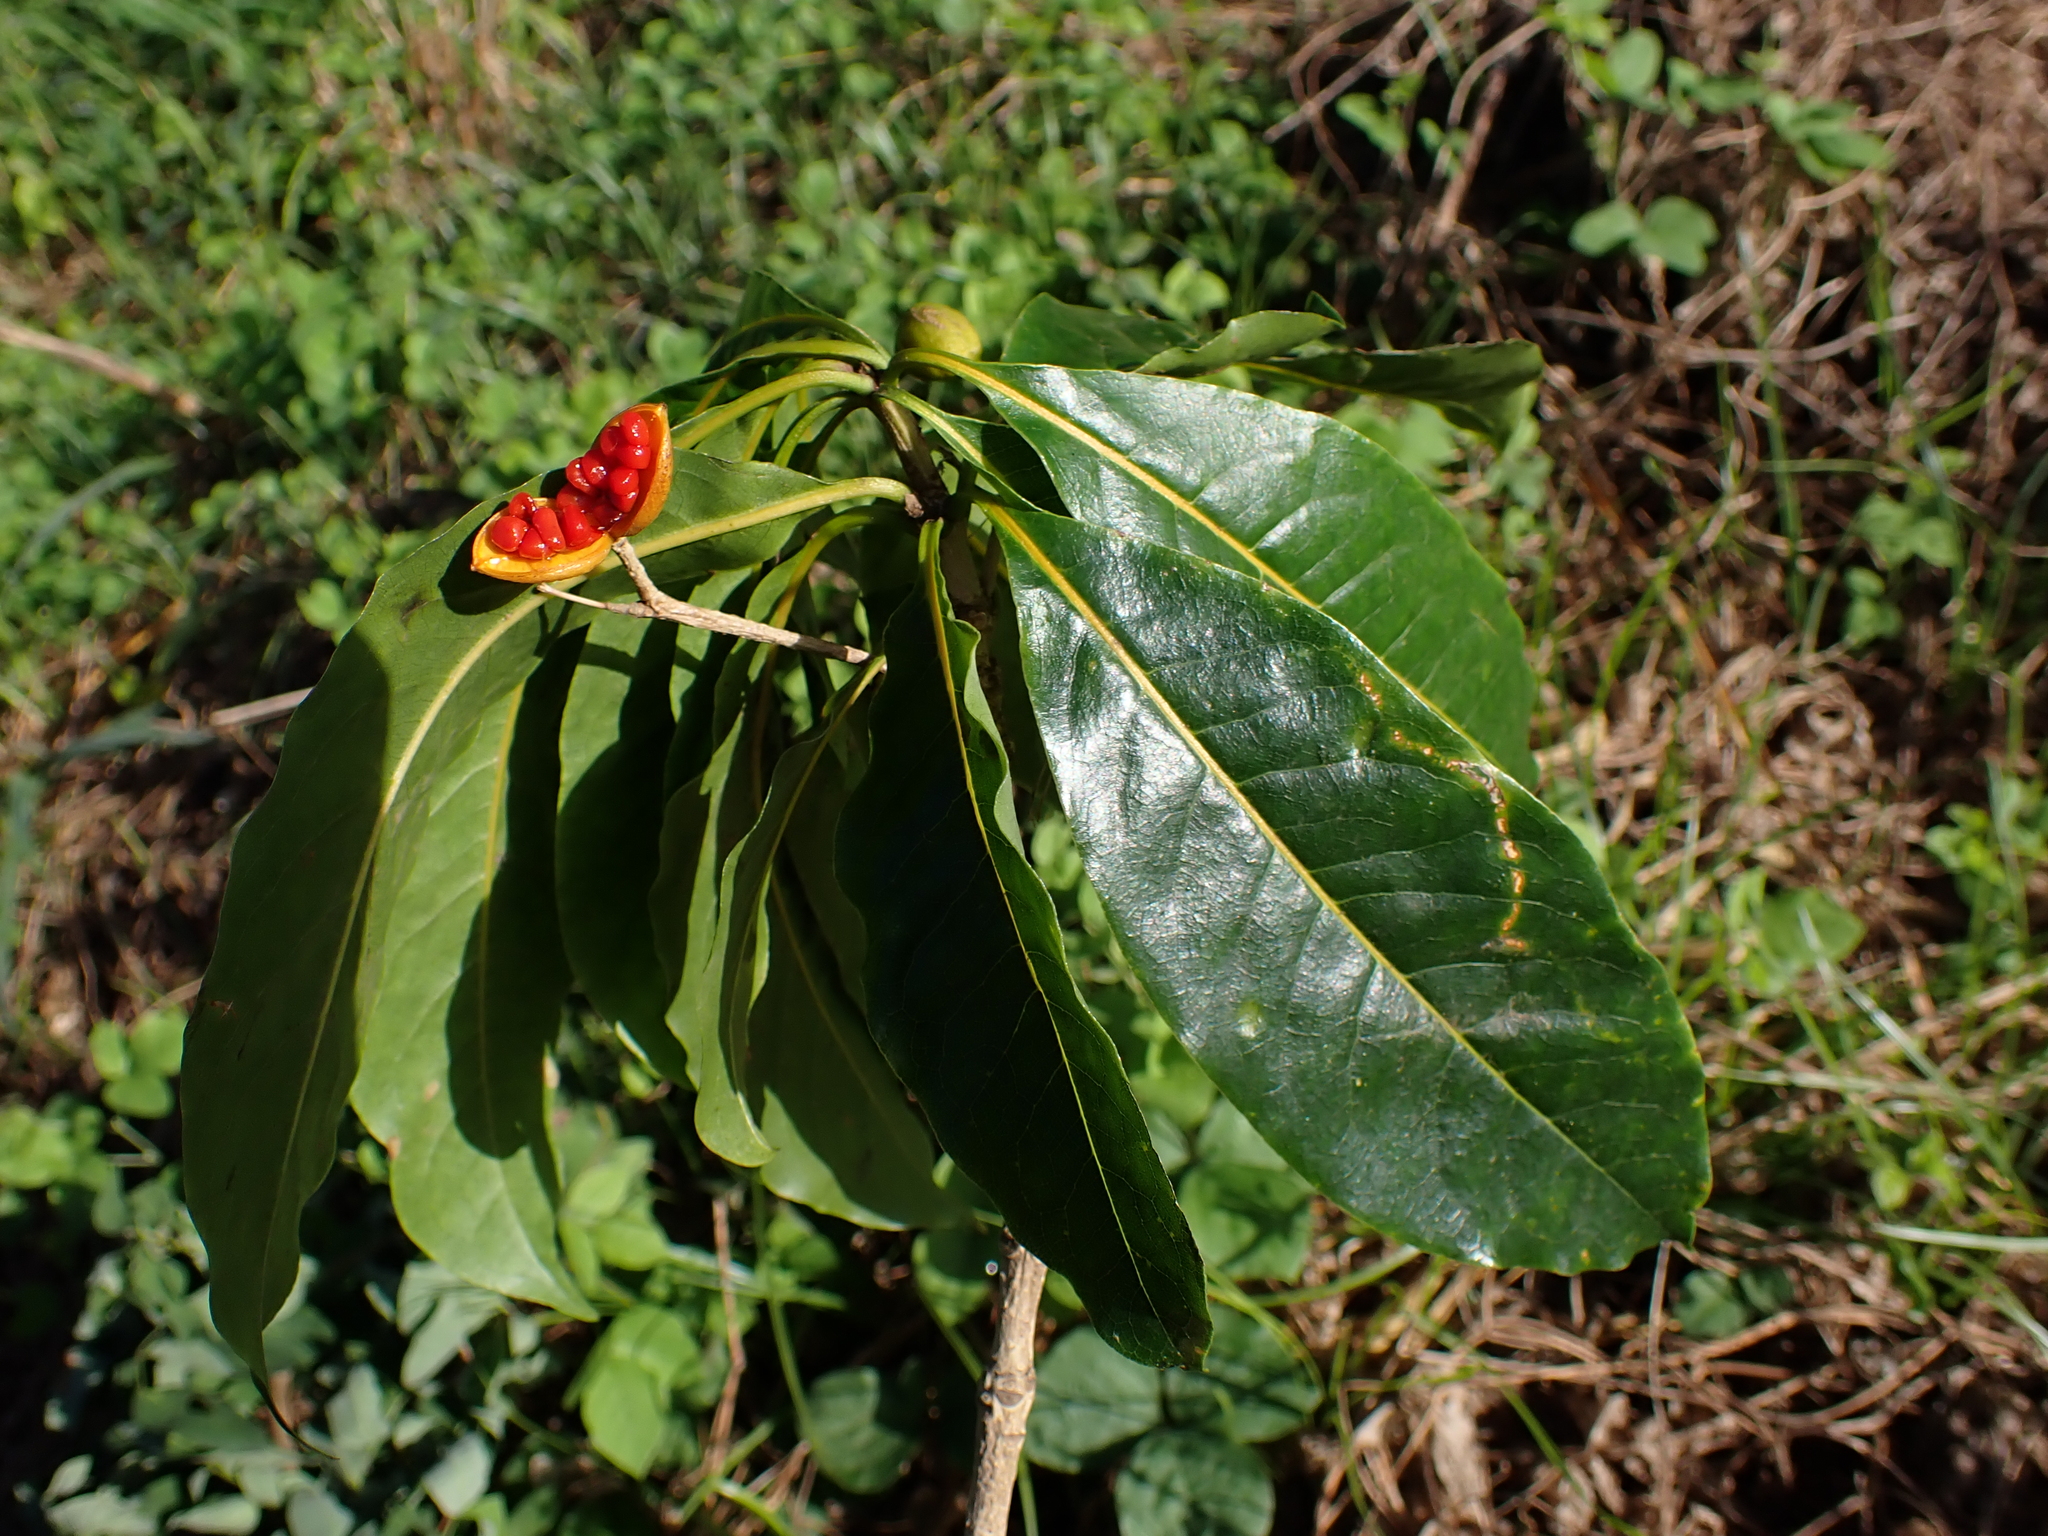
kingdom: Plantae
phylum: Tracheophyta
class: Magnoliopsida
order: Apiales
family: Pittosporaceae
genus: Pittosporum
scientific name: Pittosporum campbellii
